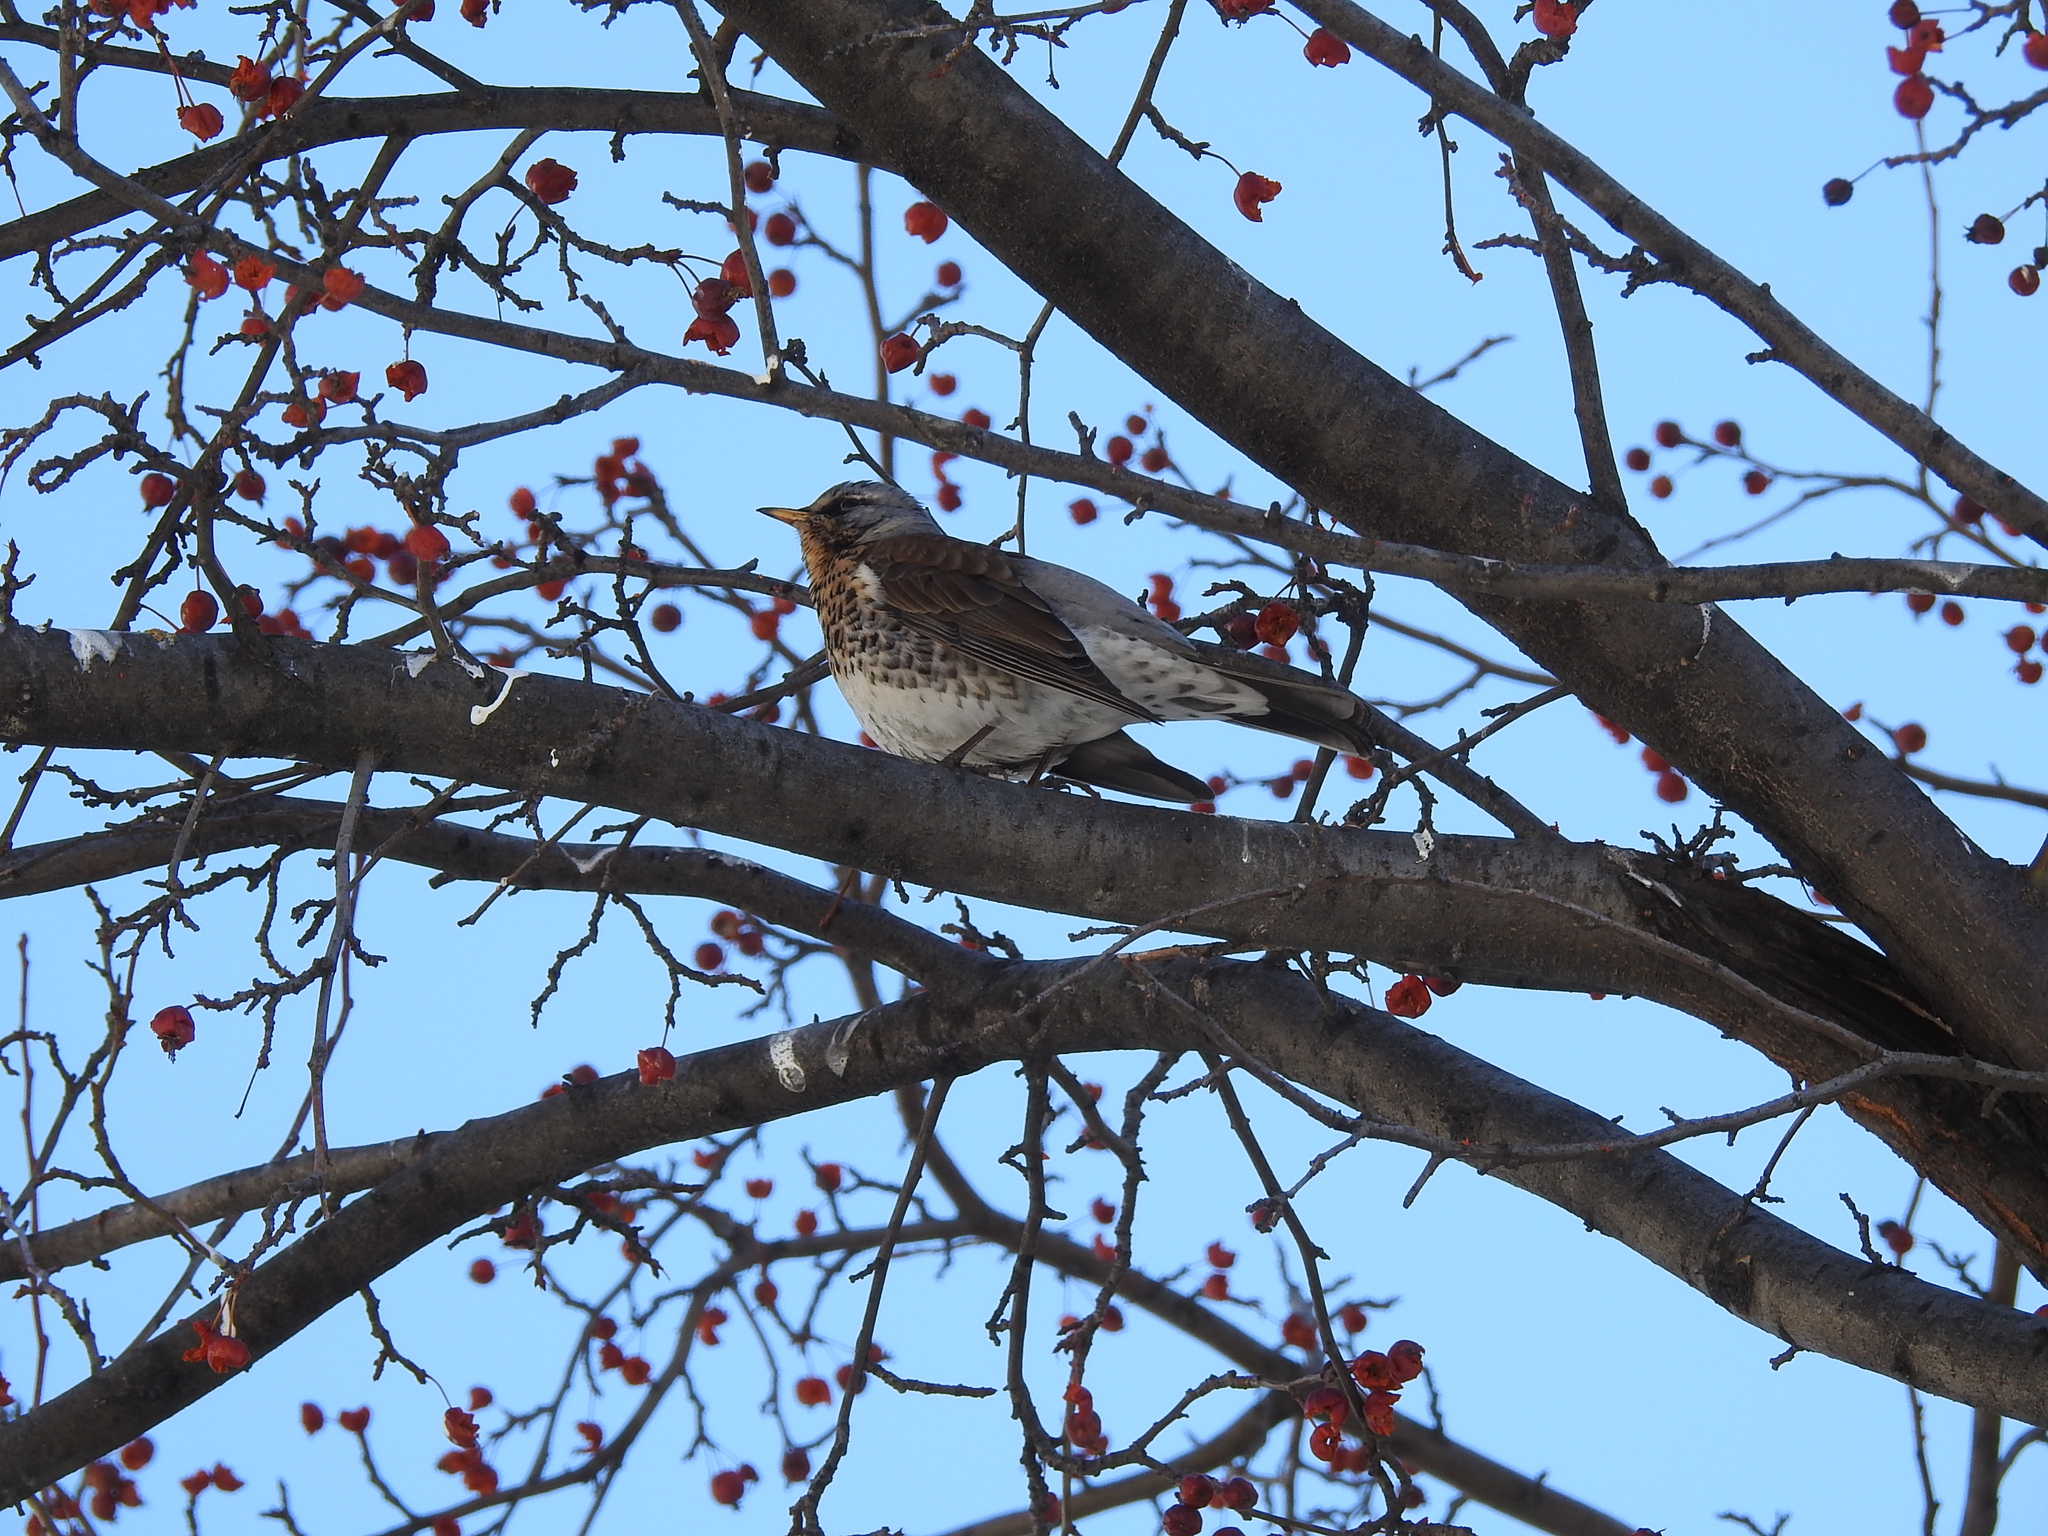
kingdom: Animalia
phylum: Chordata
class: Aves
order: Passeriformes
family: Turdidae
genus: Turdus
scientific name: Turdus pilaris
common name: Fieldfare
